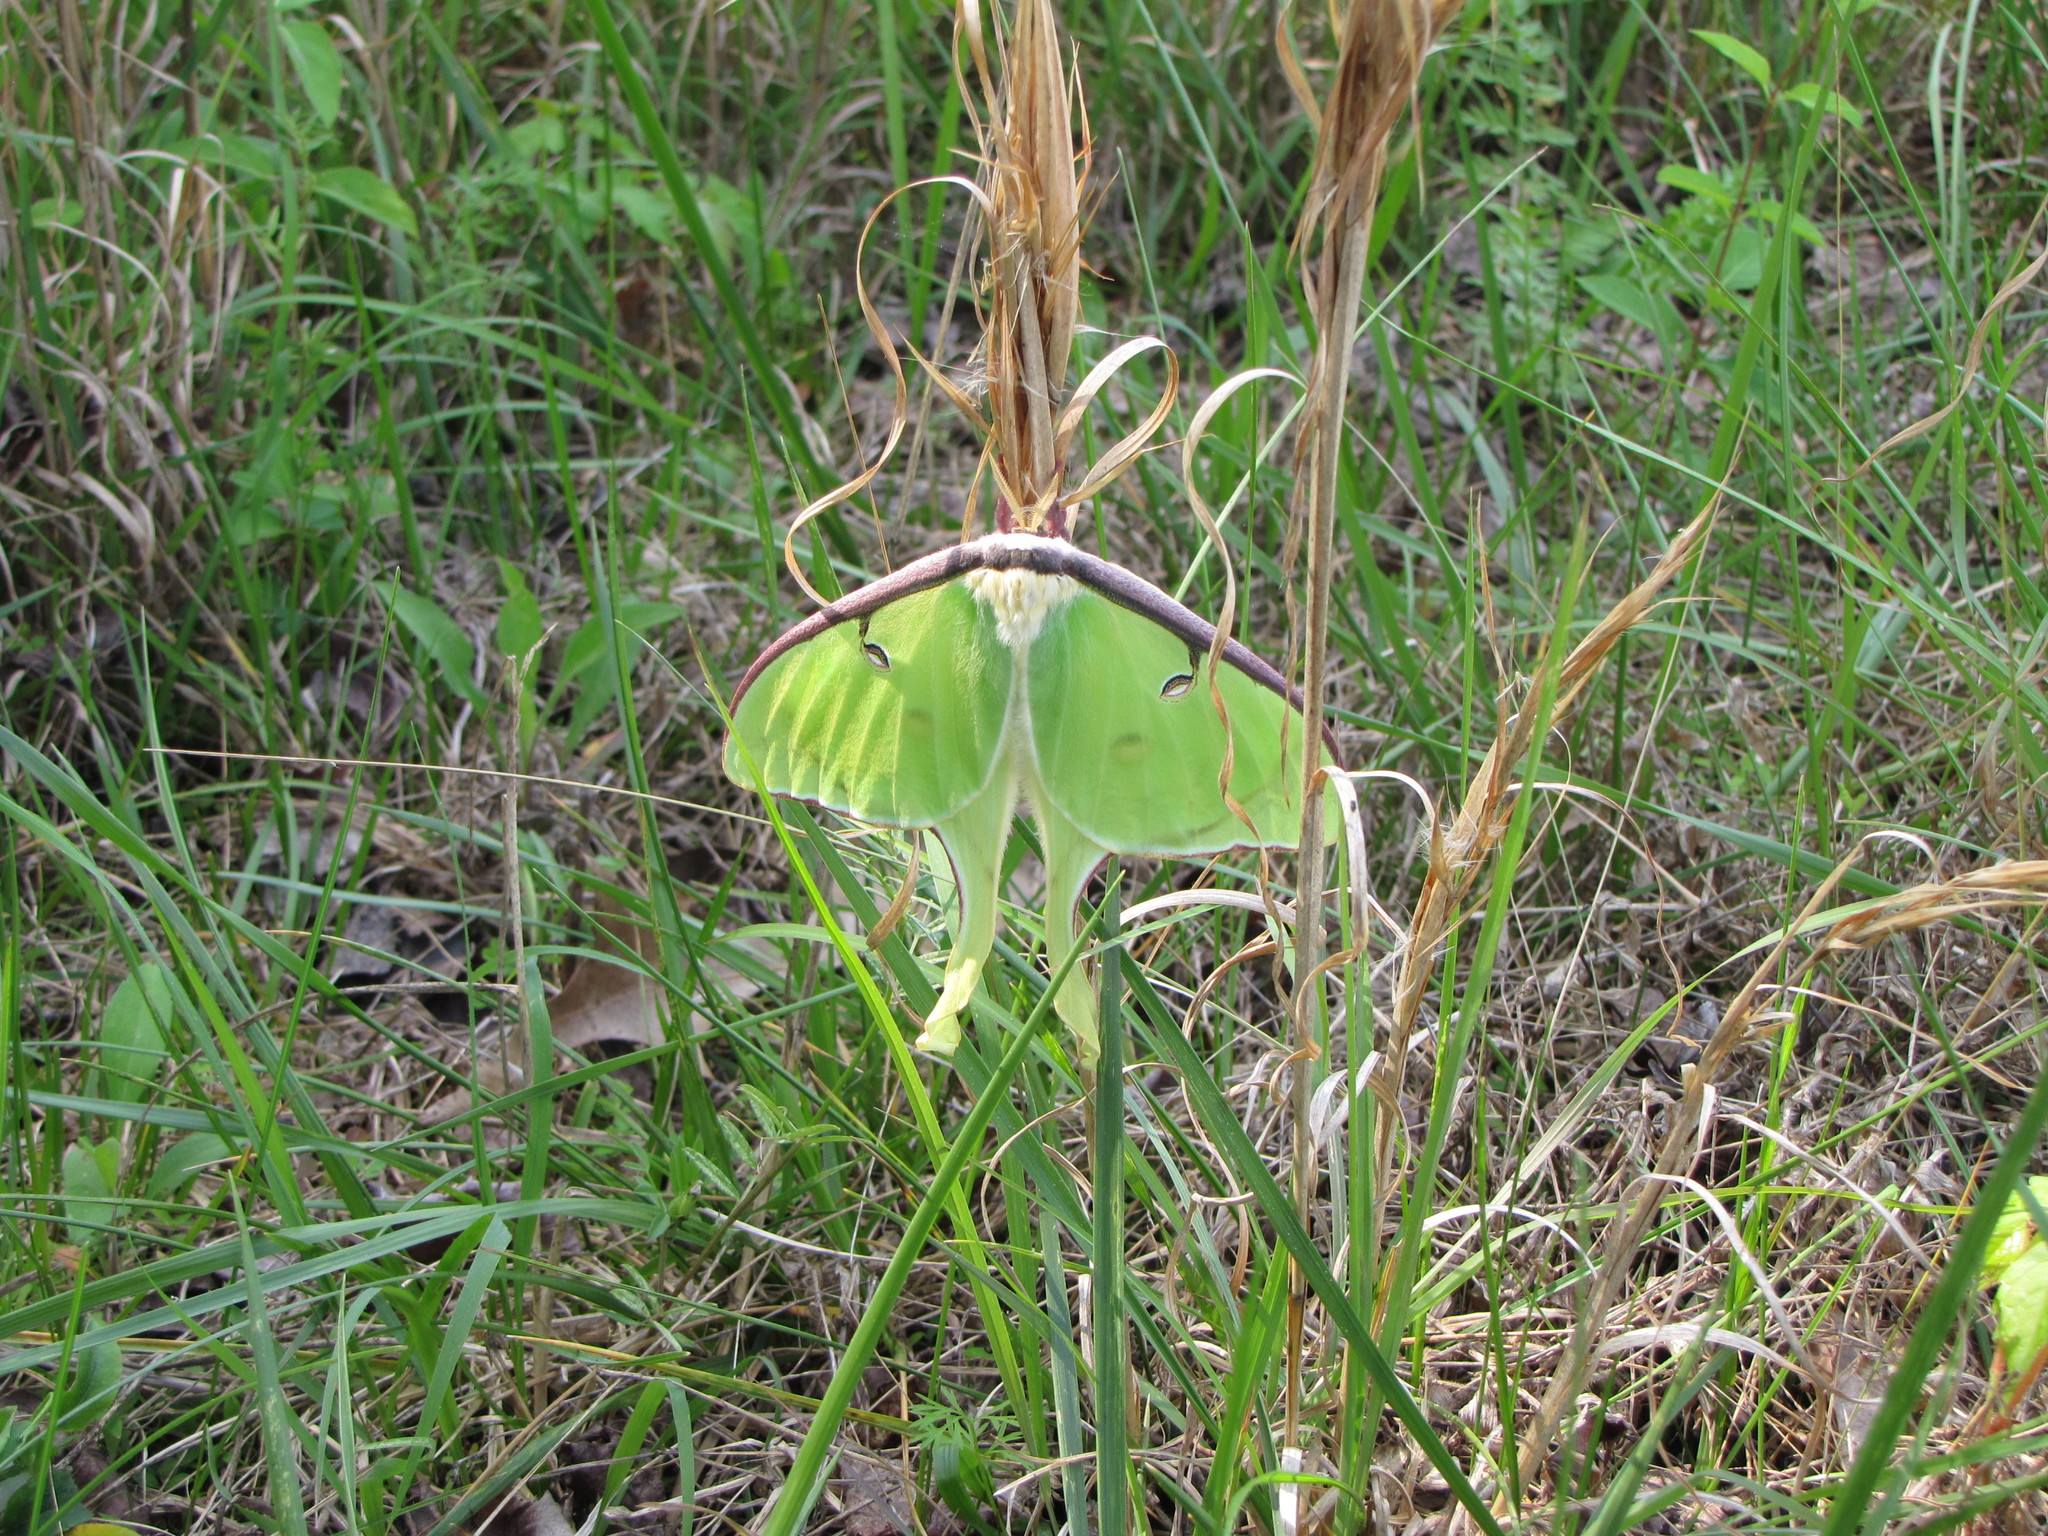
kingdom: Animalia
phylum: Arthropoda
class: Insecta
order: Lepidoptera
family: Saturniidae
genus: Actias
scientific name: Actias luna
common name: Luna moth
